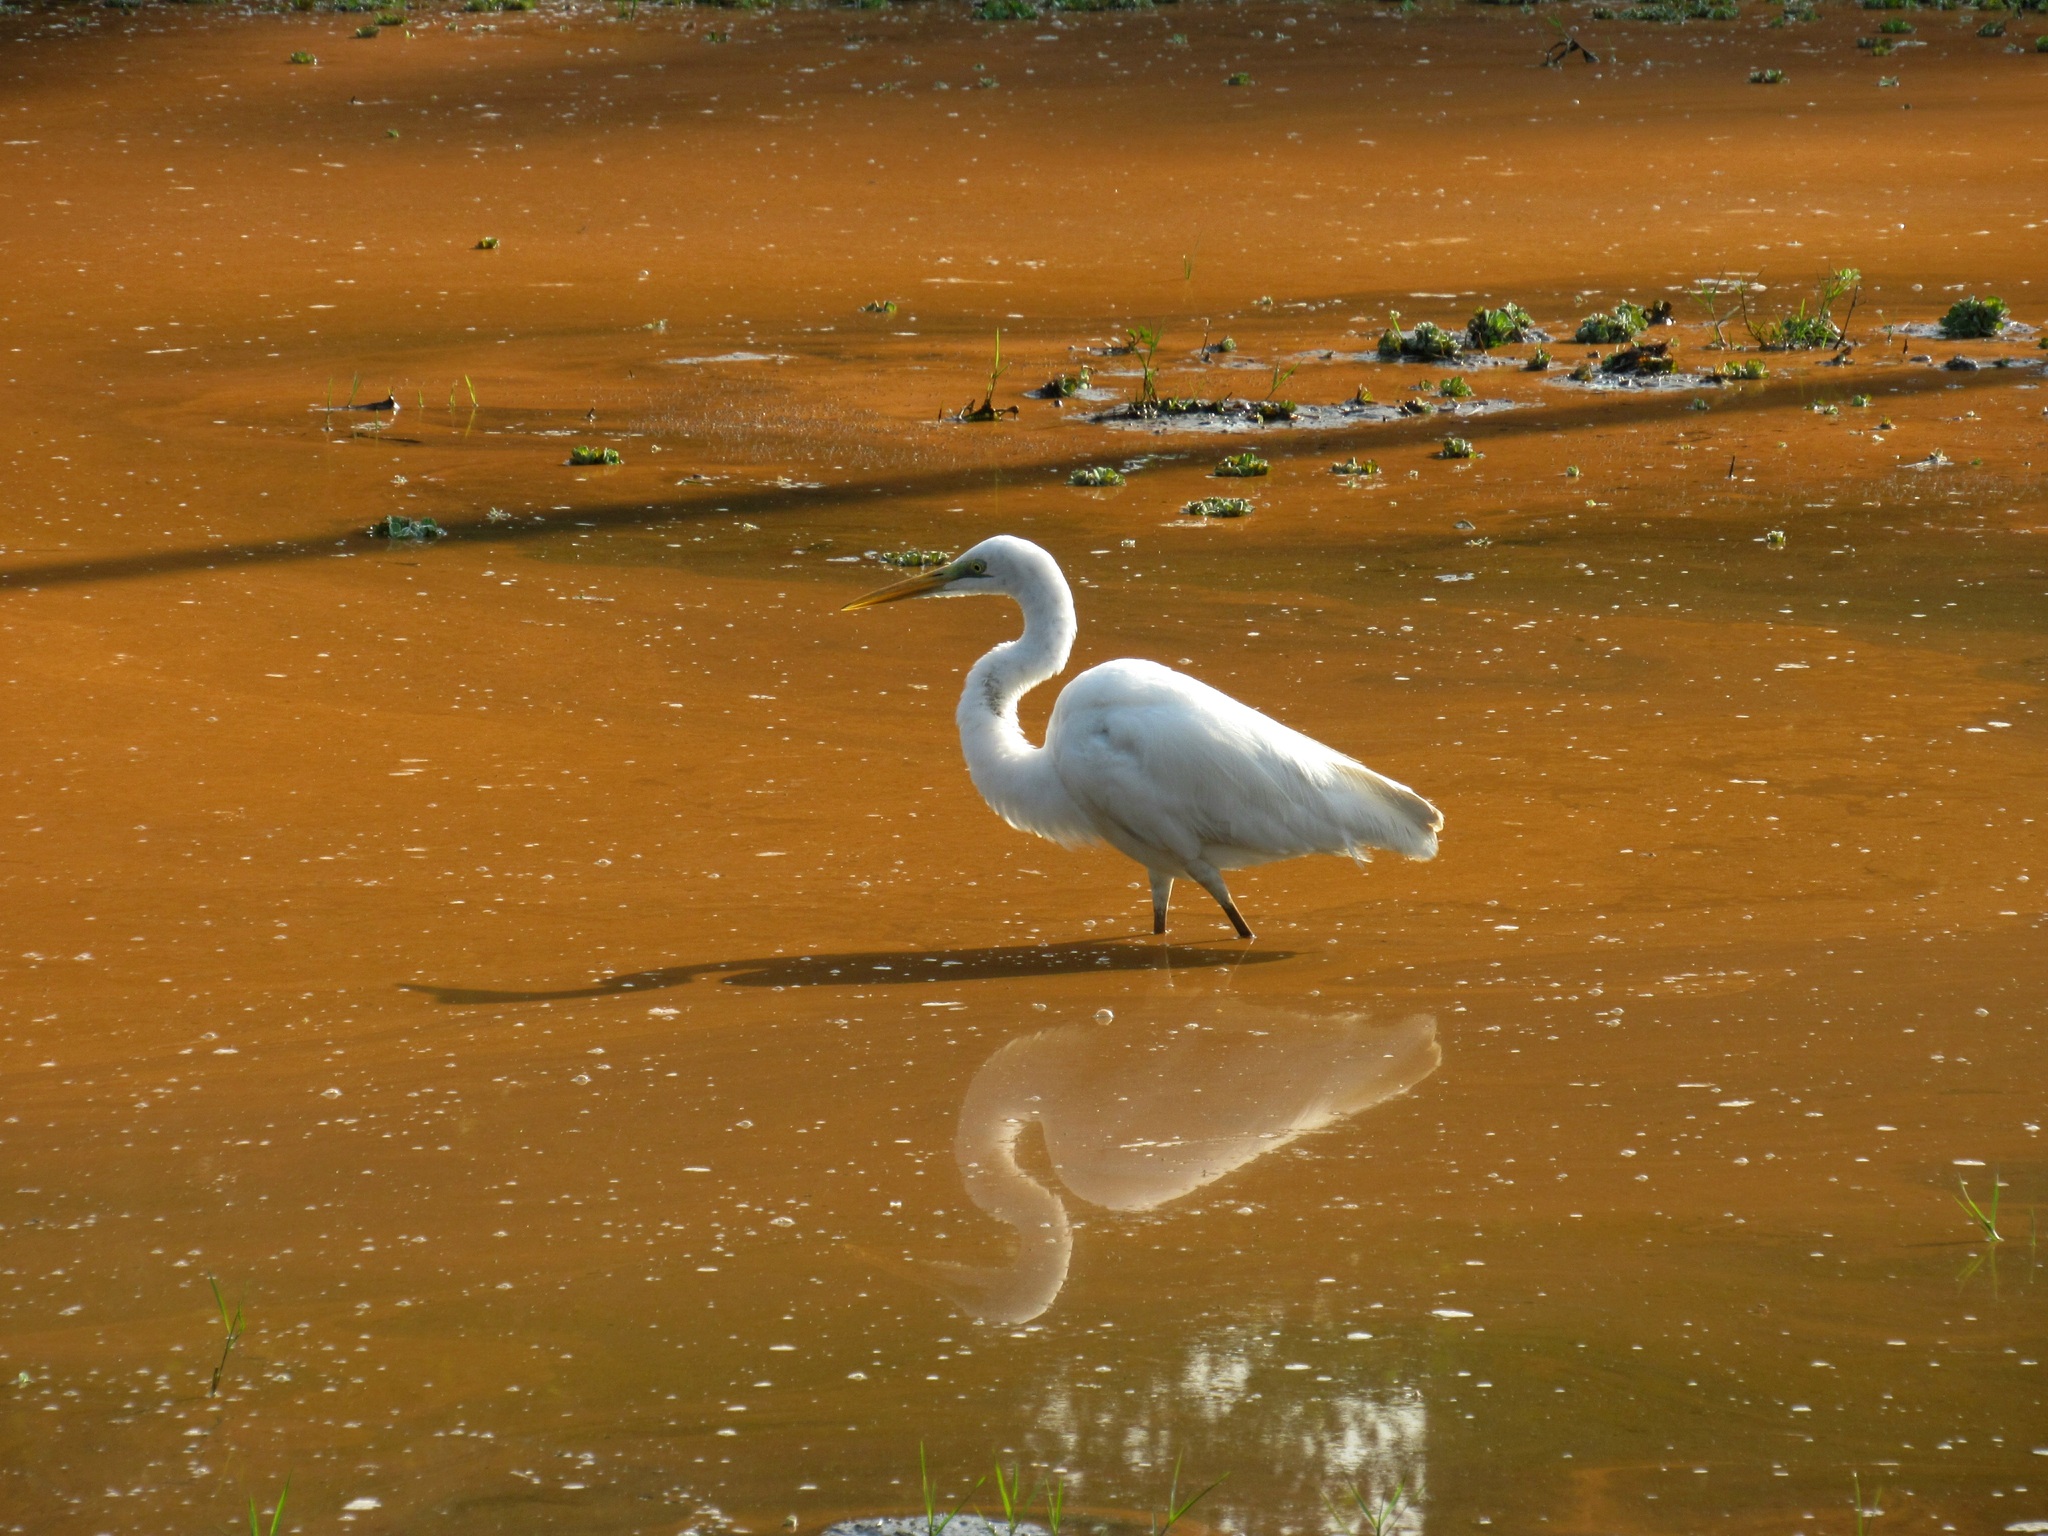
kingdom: Animalia
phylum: Chordata
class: Aves
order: Pelecaniformes
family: Ardeidae
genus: Ardea
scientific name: Ardea alba
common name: Great egret
